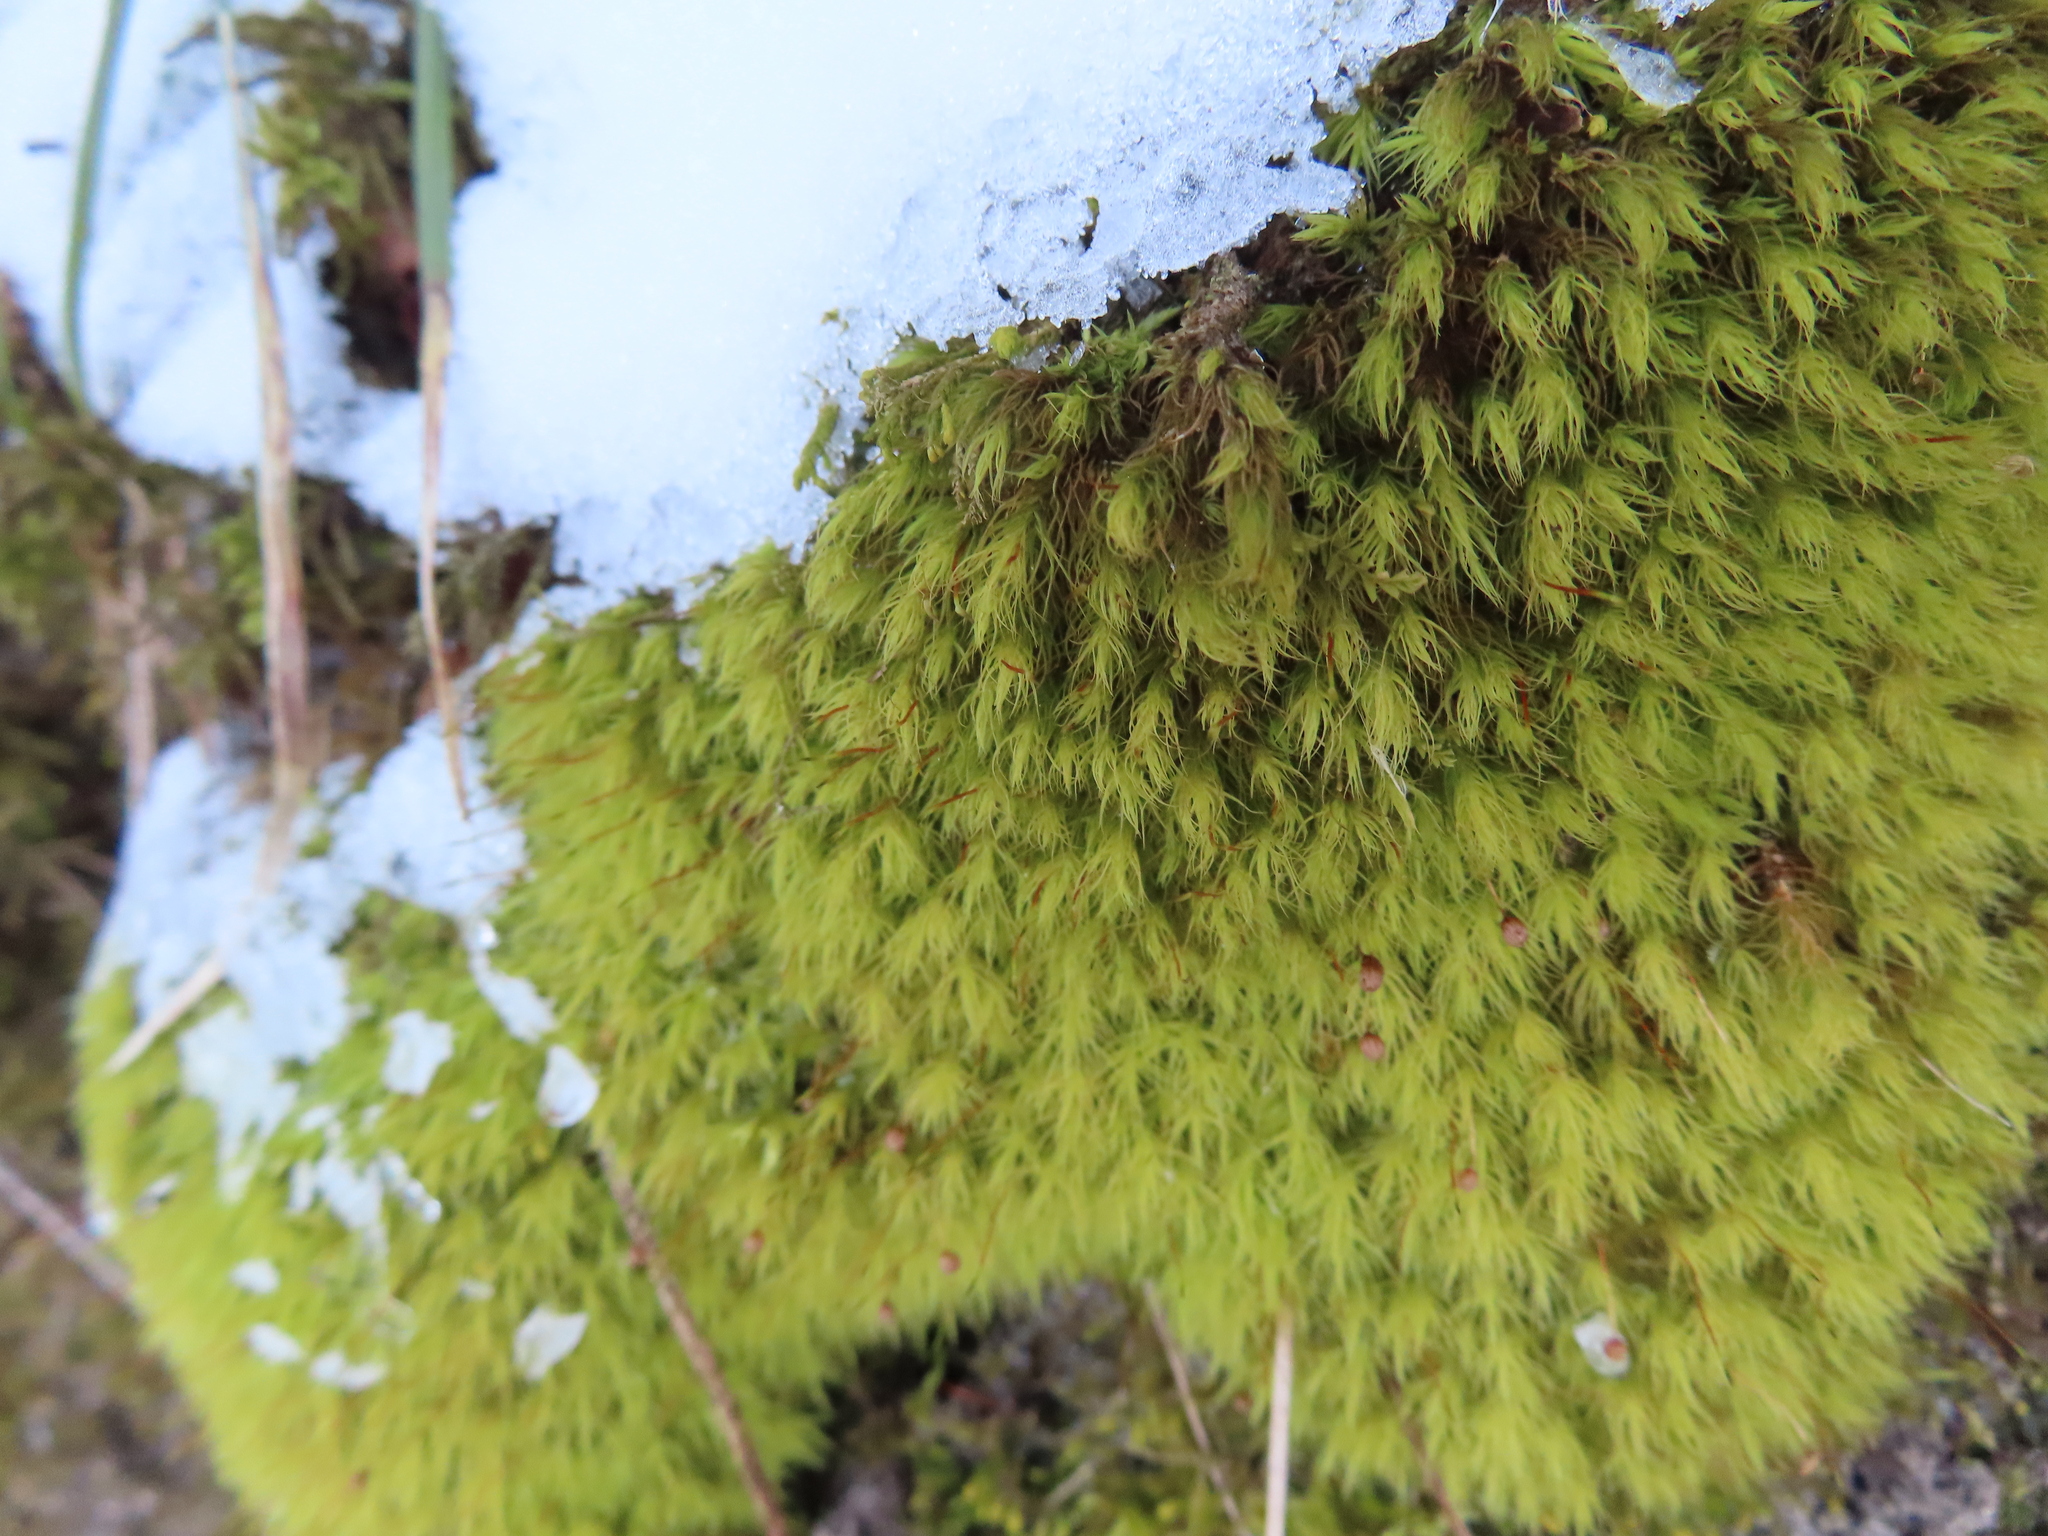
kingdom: Plantae
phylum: Bryophyta
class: Bryopsida
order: Bartramiales
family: Bartramiaceae
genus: Bartramia
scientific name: Bartramia ithyphylla
